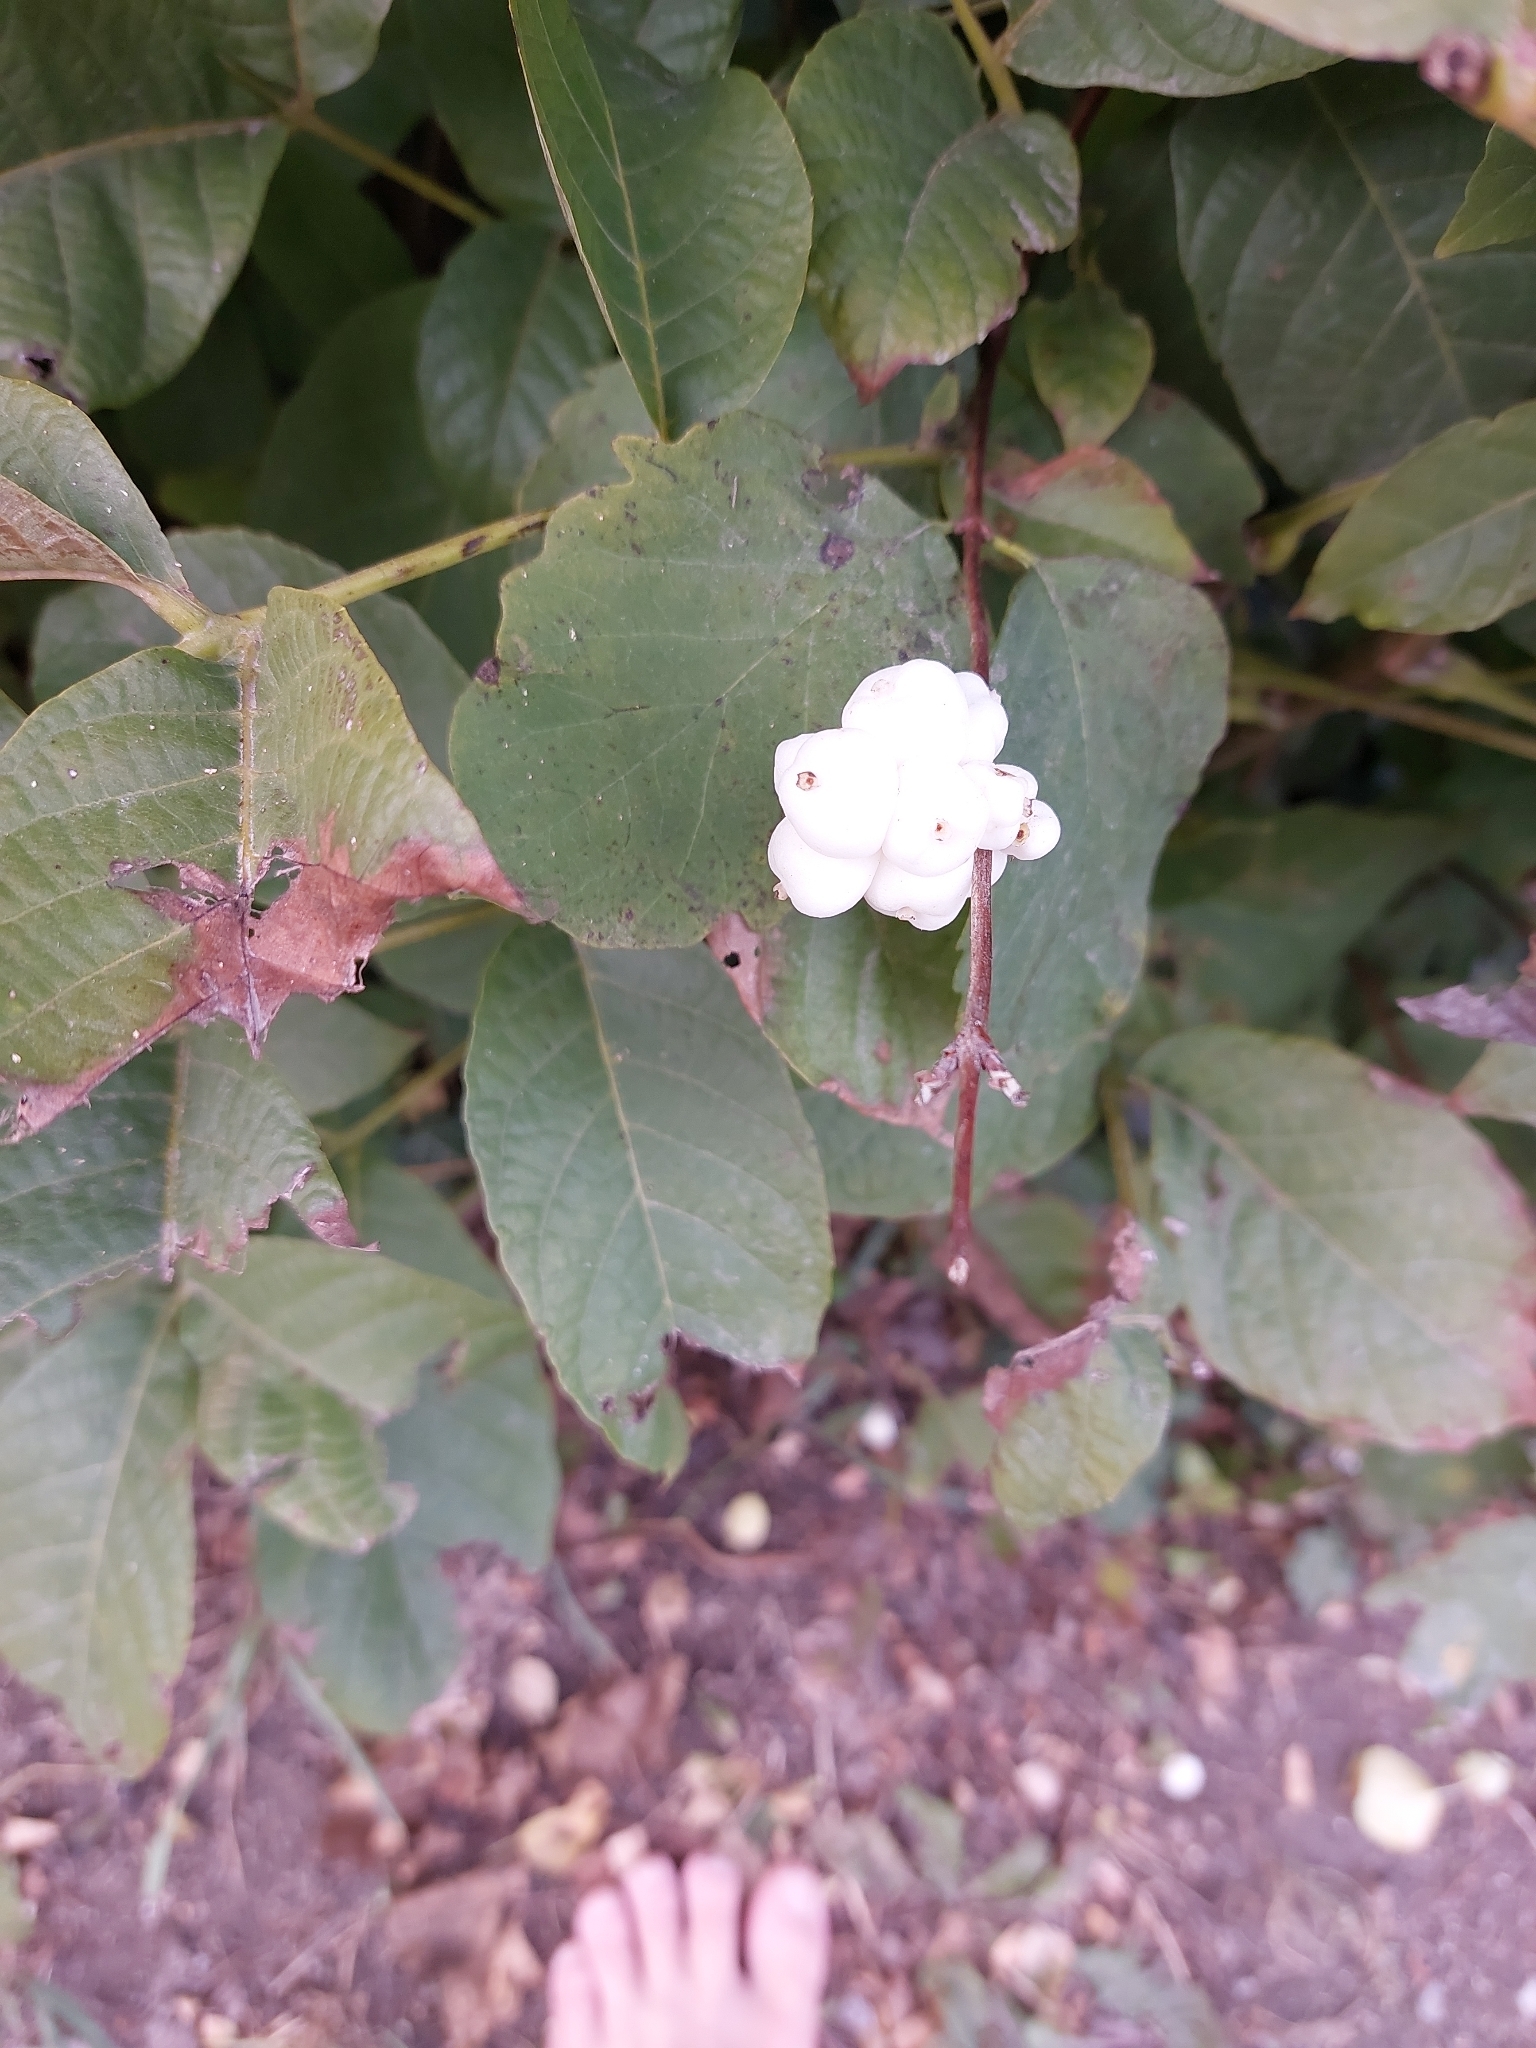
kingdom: Plantae
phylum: Tracheophyta
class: Magnoliopsida
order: Dipsacales
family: Caprifoliaceae
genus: Symphoricarpos
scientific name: Symphoricarpos albus
